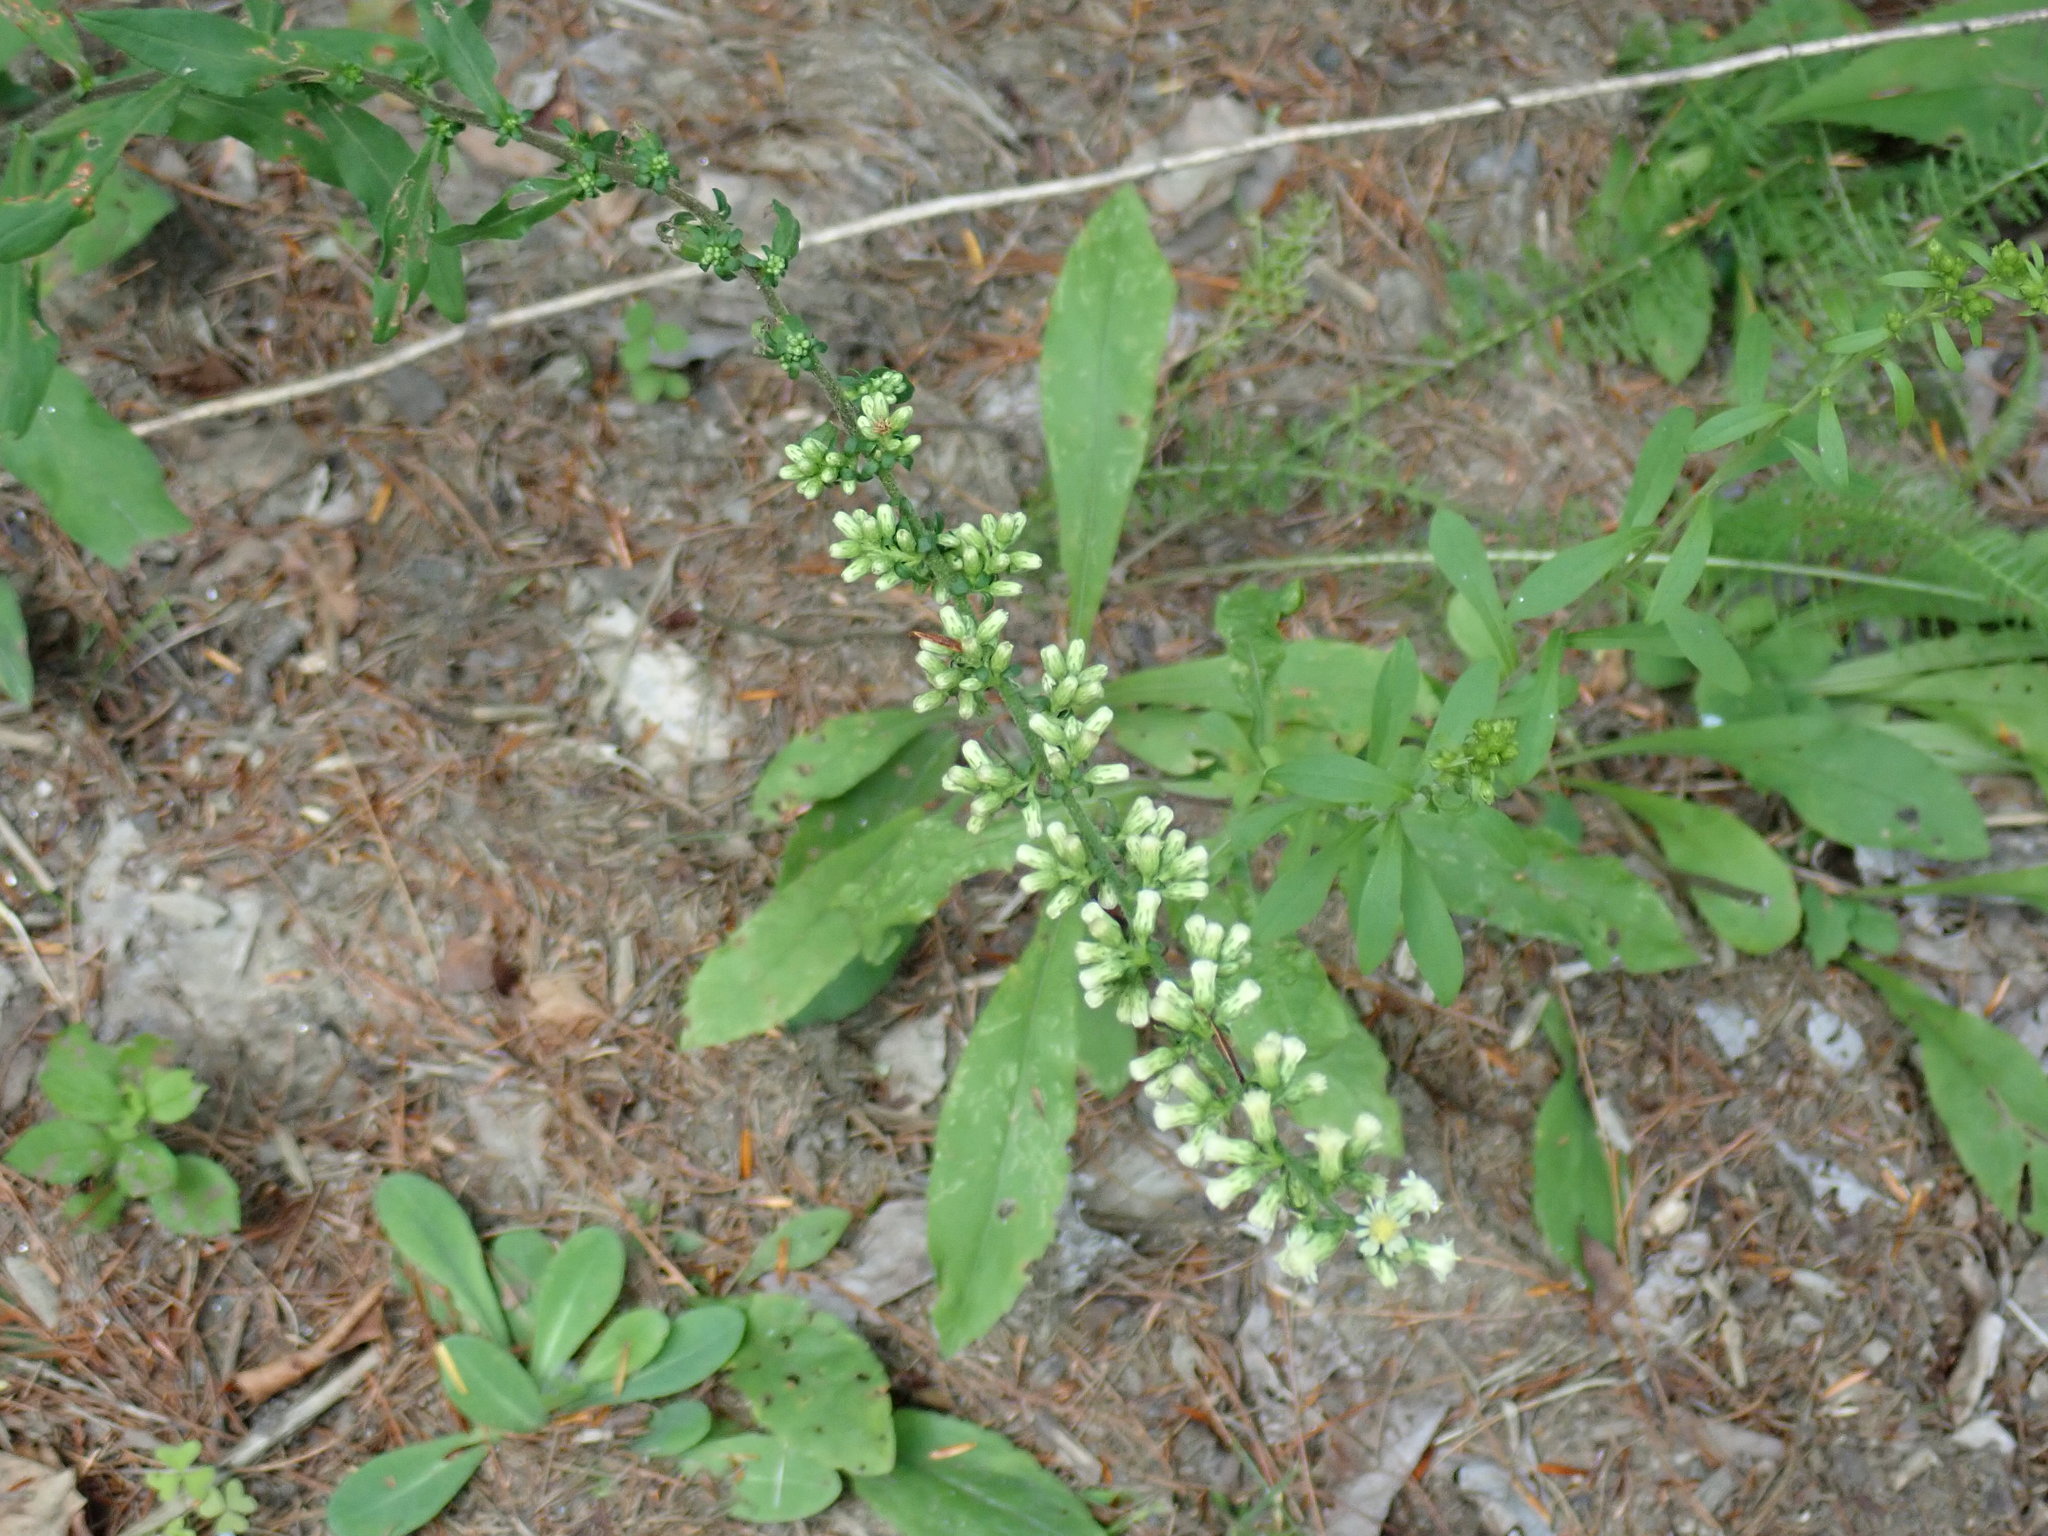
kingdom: Plantae
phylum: Tracheophyta
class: Magnoliopsida
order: Asterales
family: Asteraceae
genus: Solidago
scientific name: Solidago bicolor
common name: Silverrod
